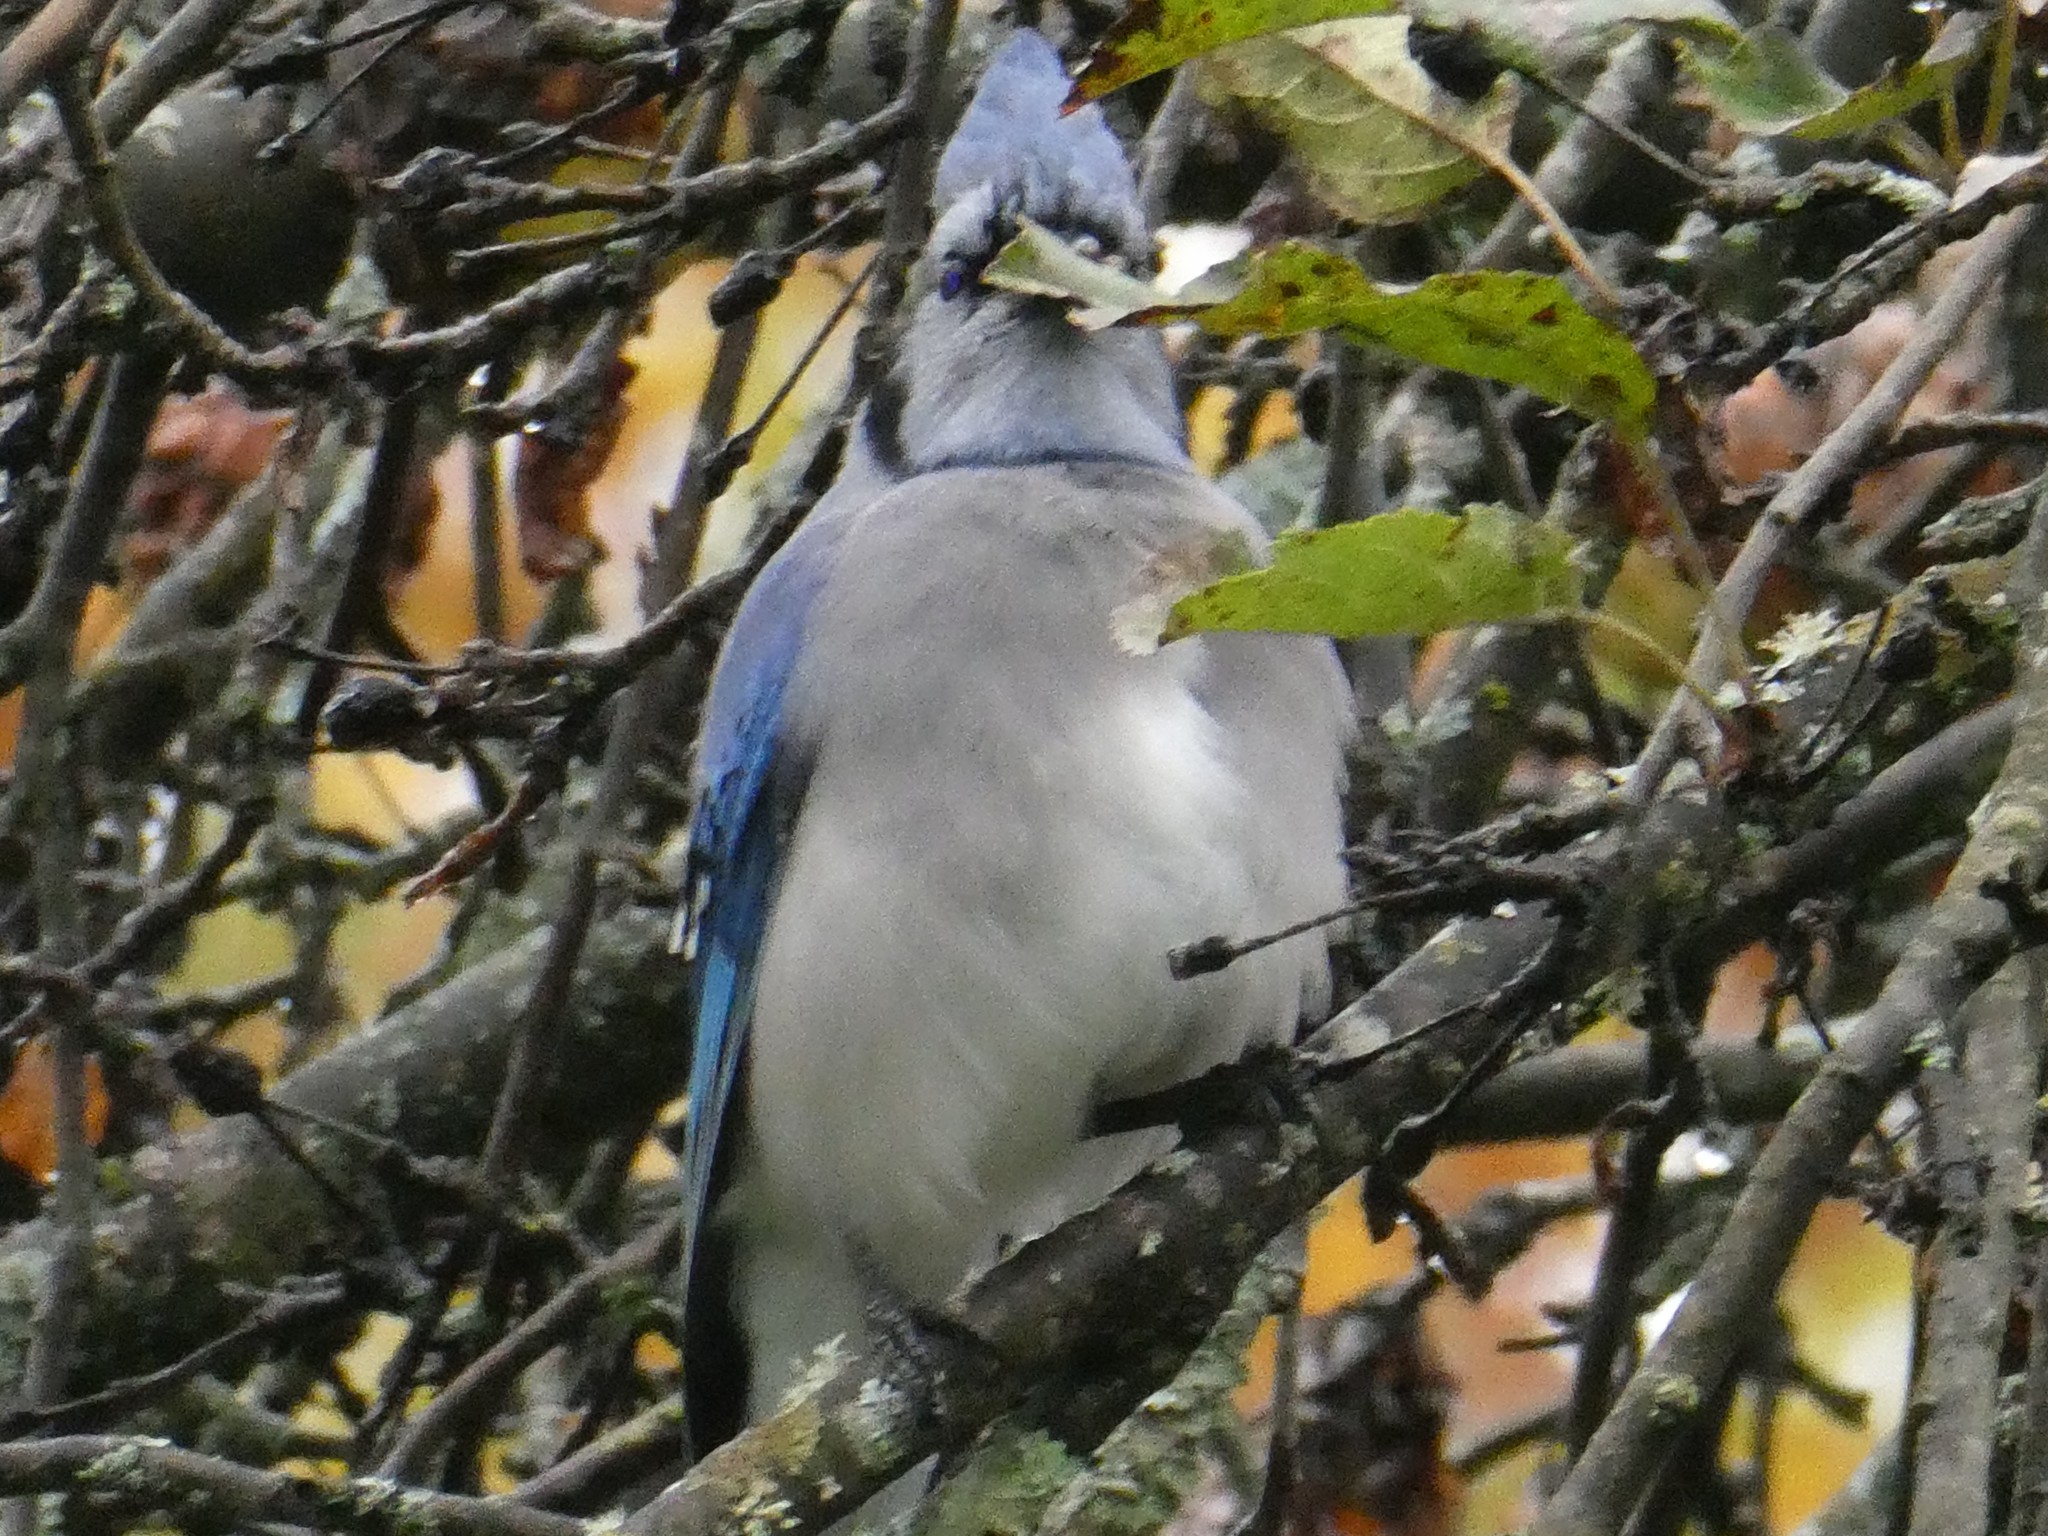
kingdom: Animalia
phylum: Chordata
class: Aves
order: Passeriformes
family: Corvidae
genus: Cyanocitta
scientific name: Cyanocitta cristata
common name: Blue jay
